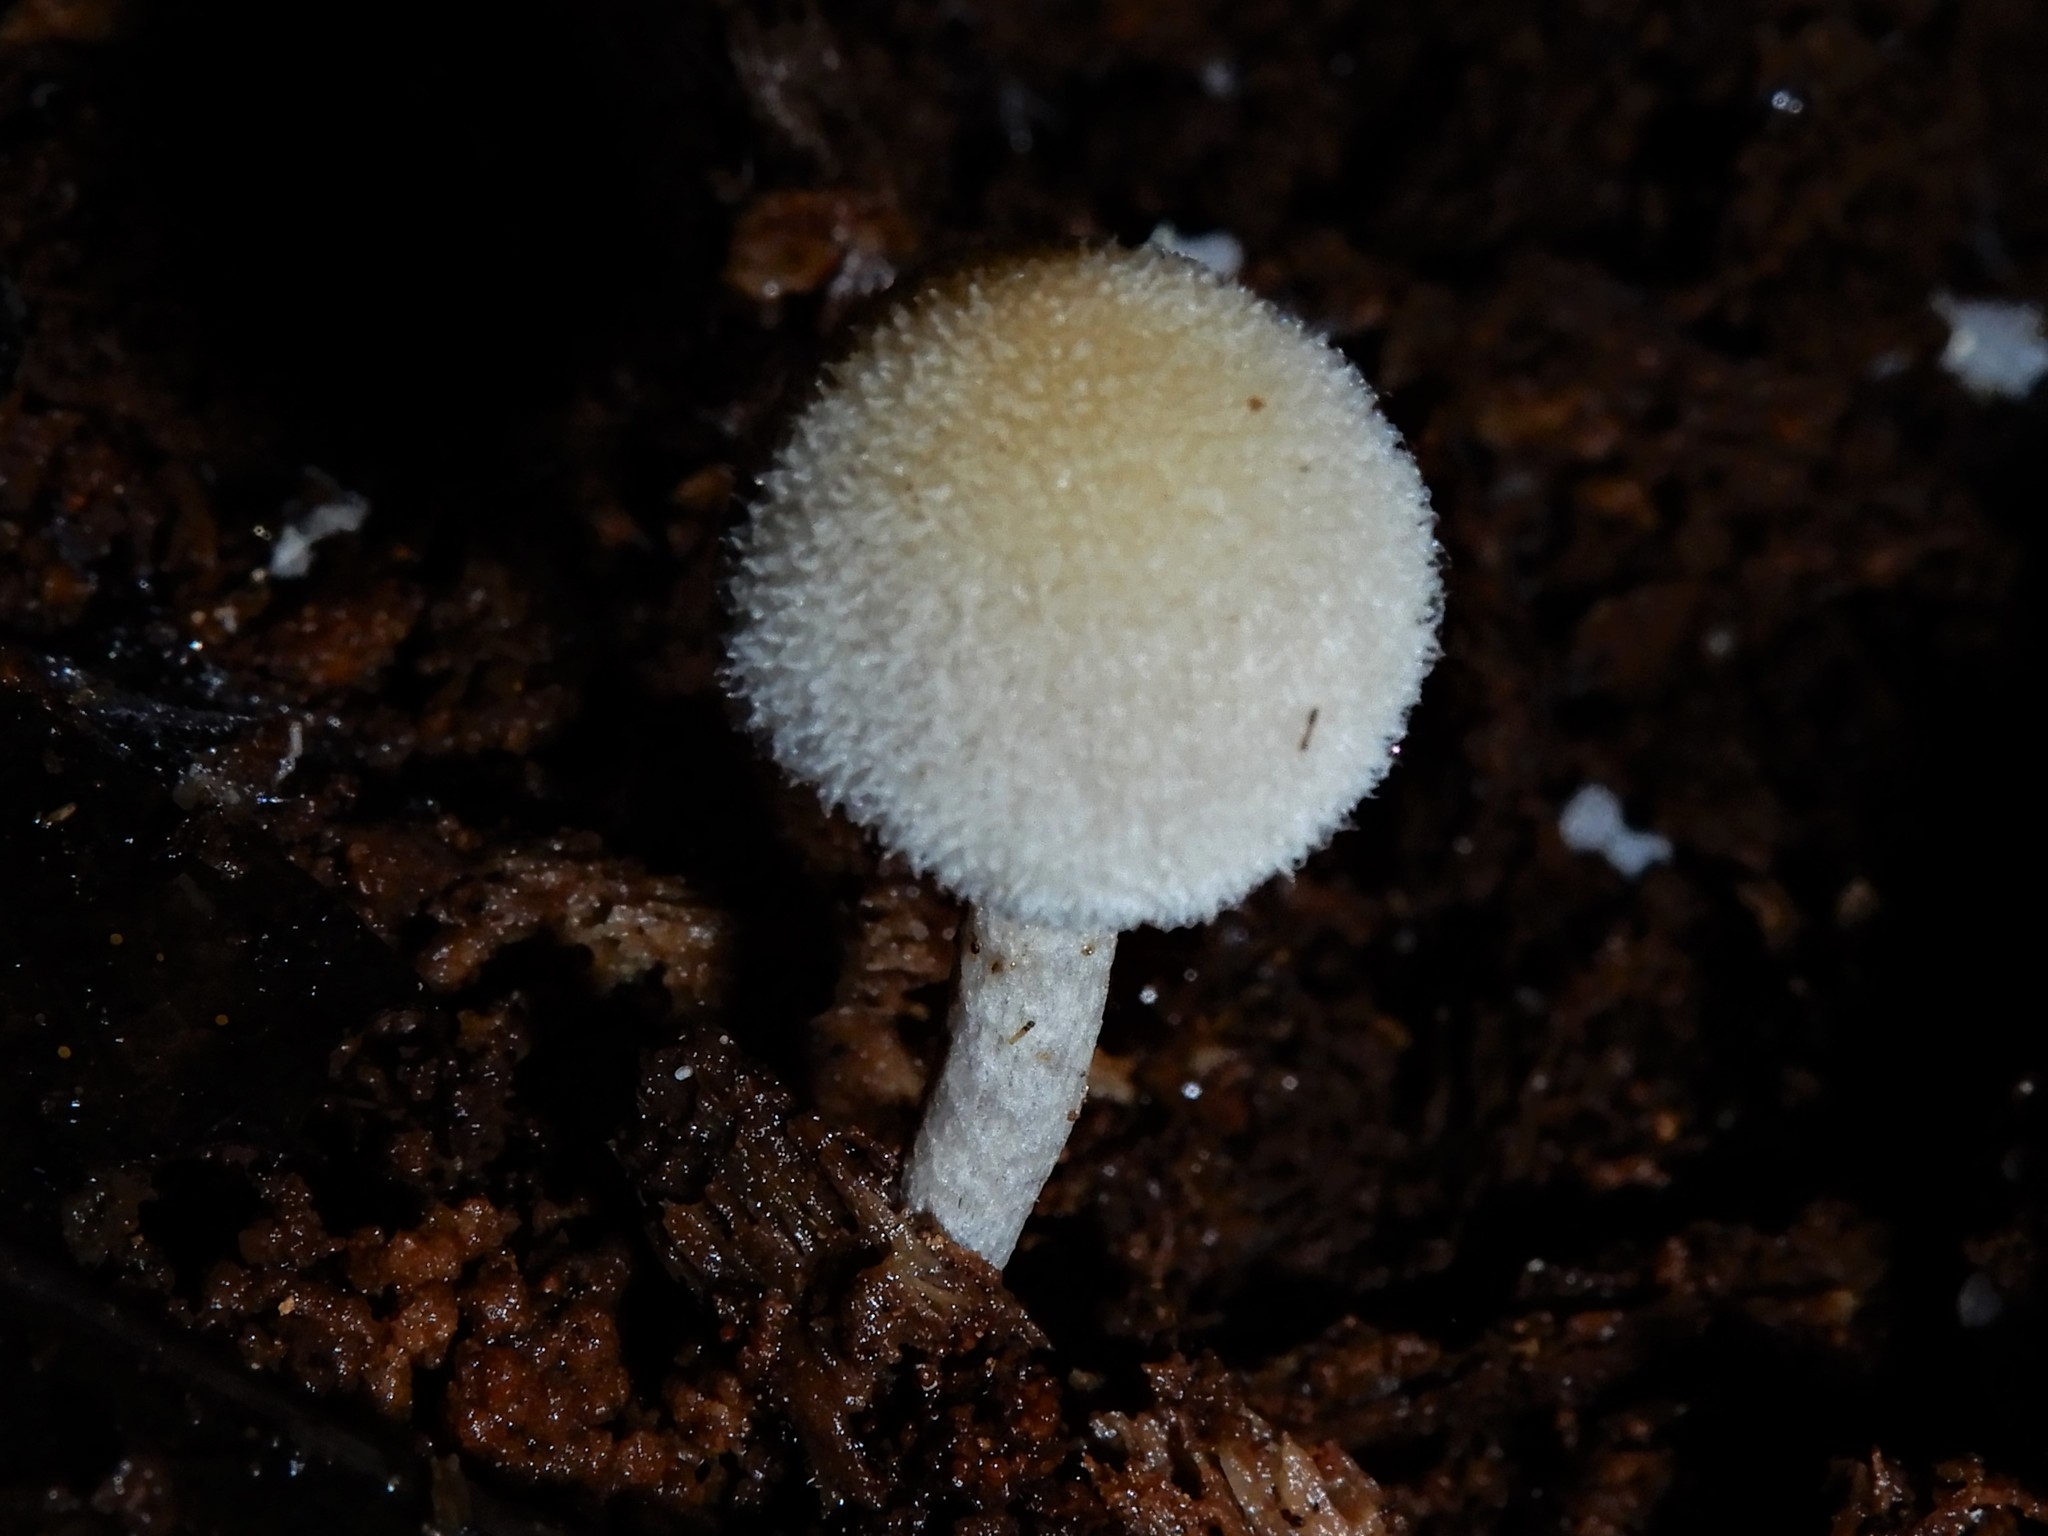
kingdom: Fungi
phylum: Basidiomycota
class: Agaricomycetes
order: Agaricales
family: Bolbitiaceae
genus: Tympanella
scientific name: Tympanella galanthina
